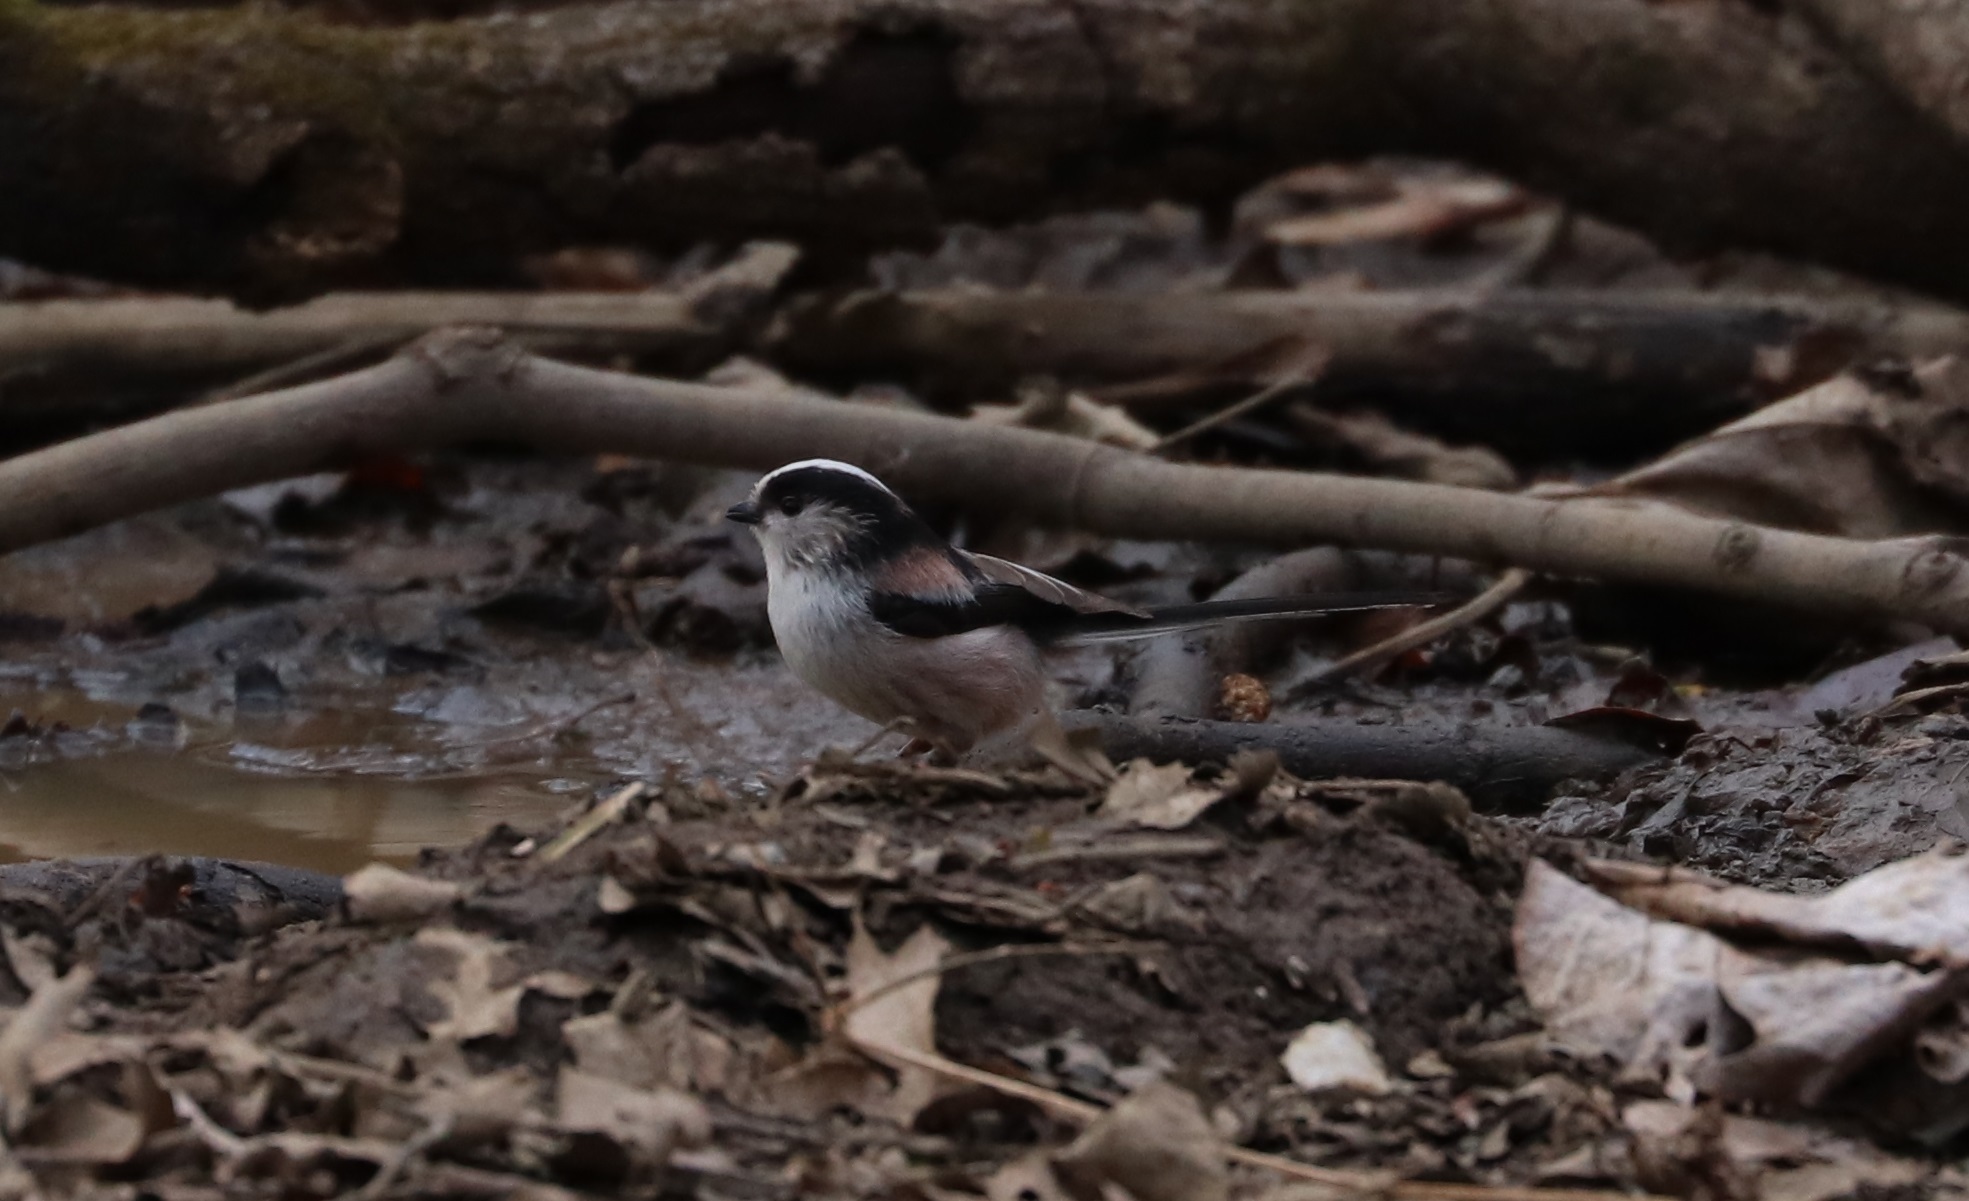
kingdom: Animalia
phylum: Chordata
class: Aves
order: Passeriformes
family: Aegithalidae
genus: Aegithalos
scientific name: Aegithalos caudatus
